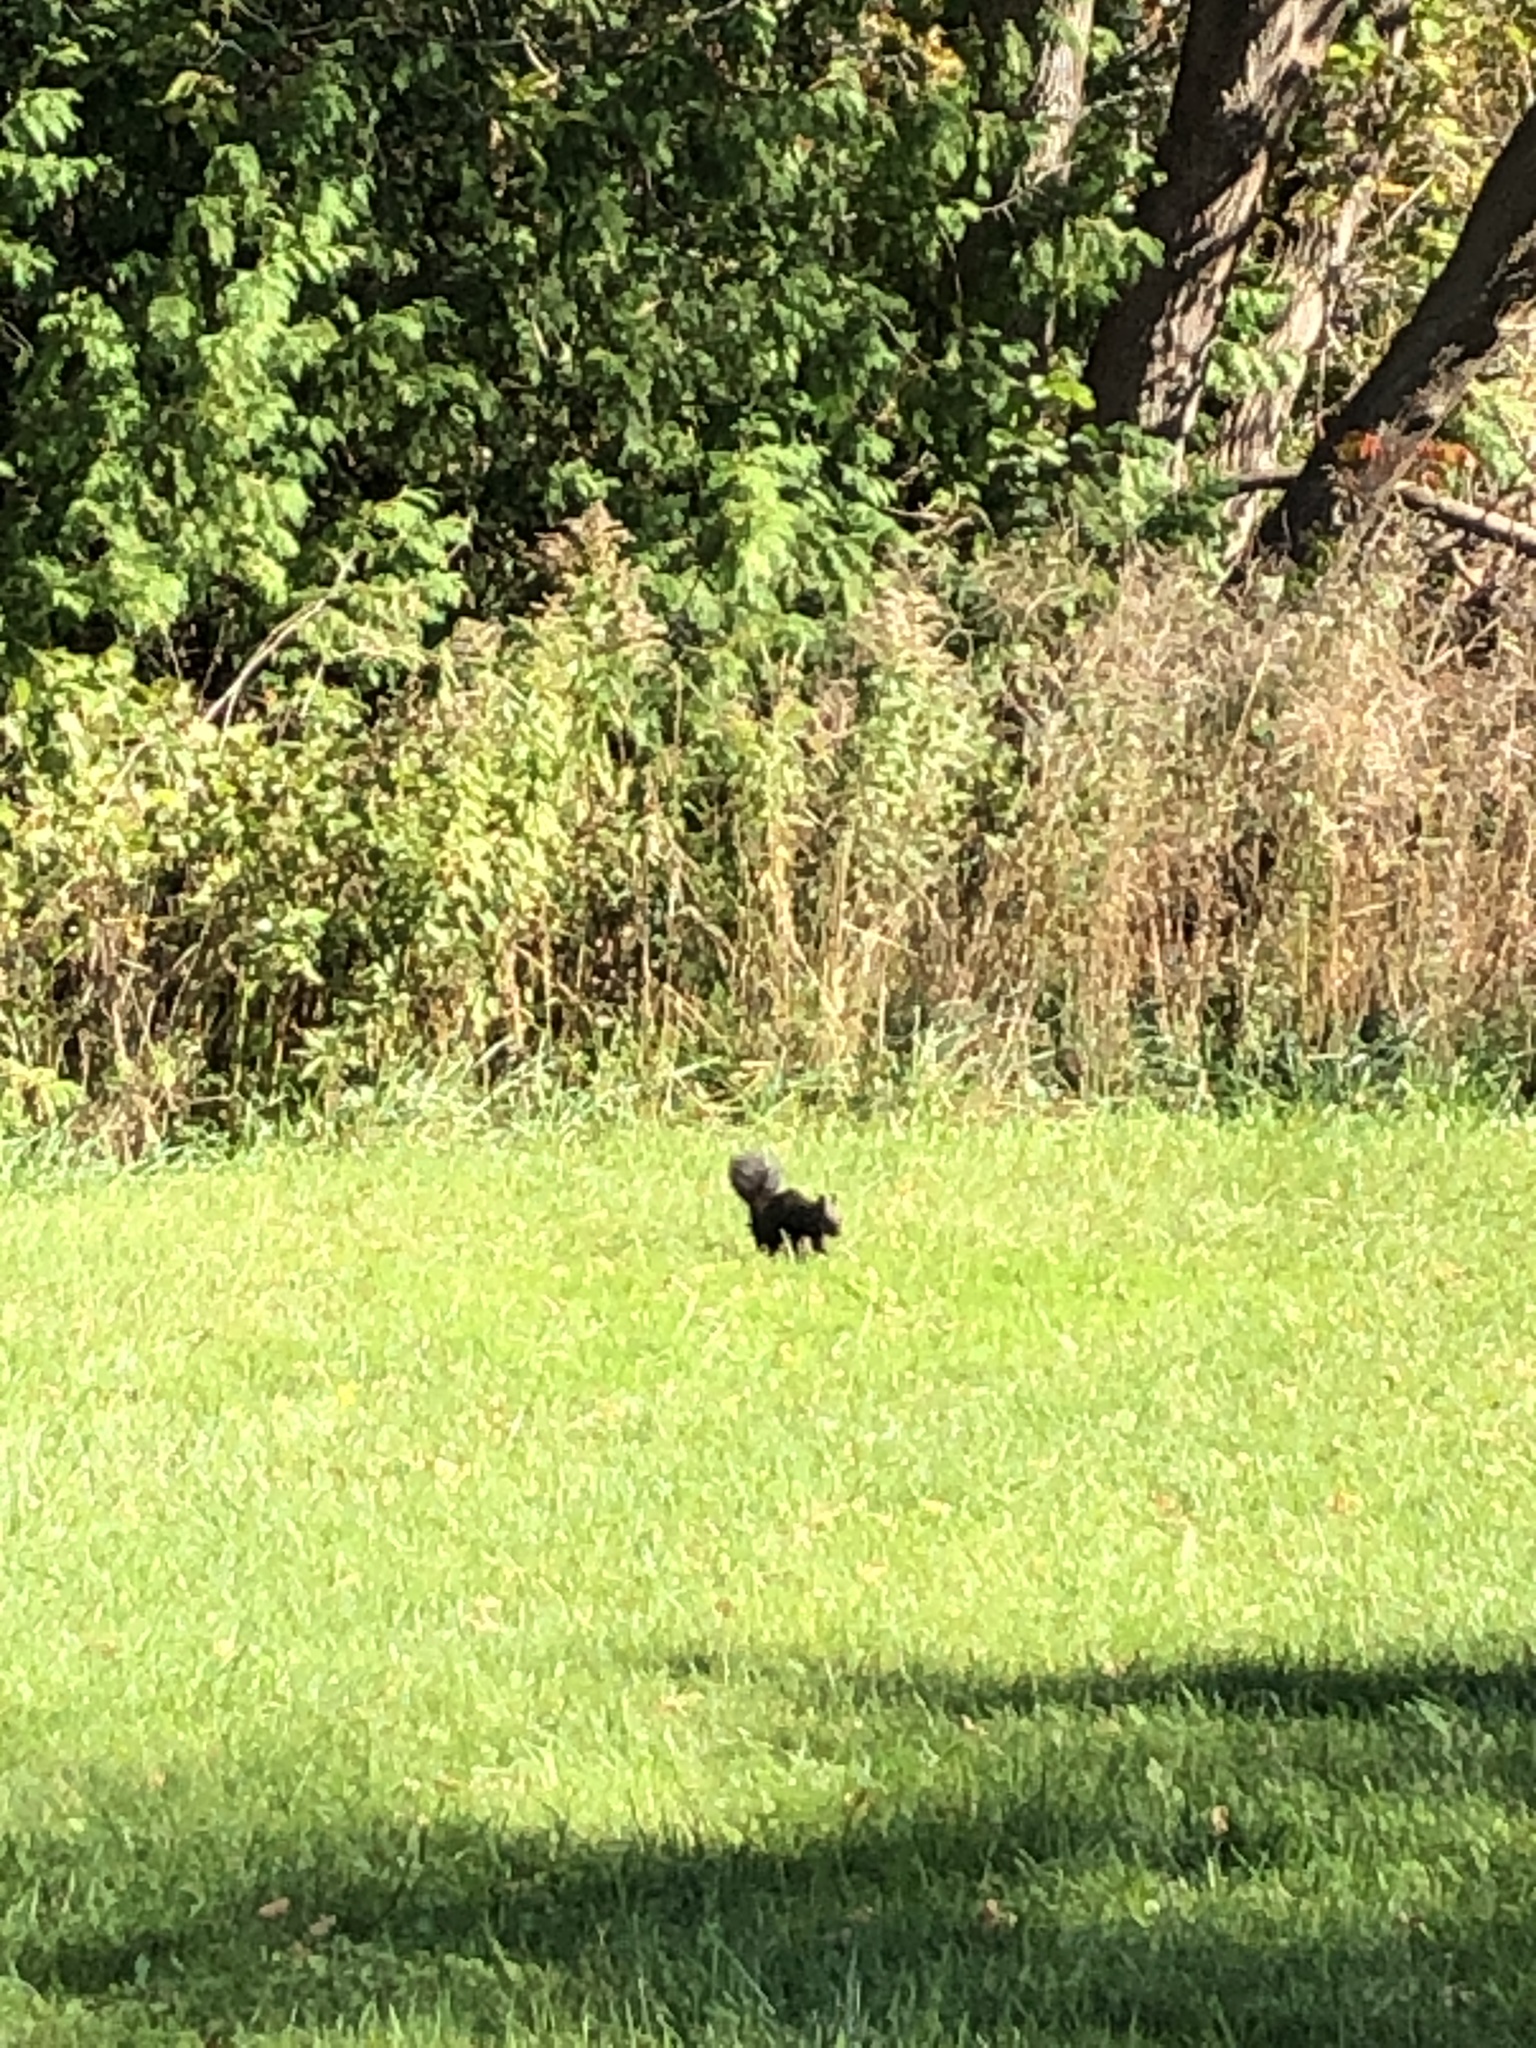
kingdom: Animalia
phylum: Chordata
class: Mammalia
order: Rodentia
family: Sciuridae
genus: Sciurus
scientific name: Sciurus carolinensis
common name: Eastern gray squirrel
